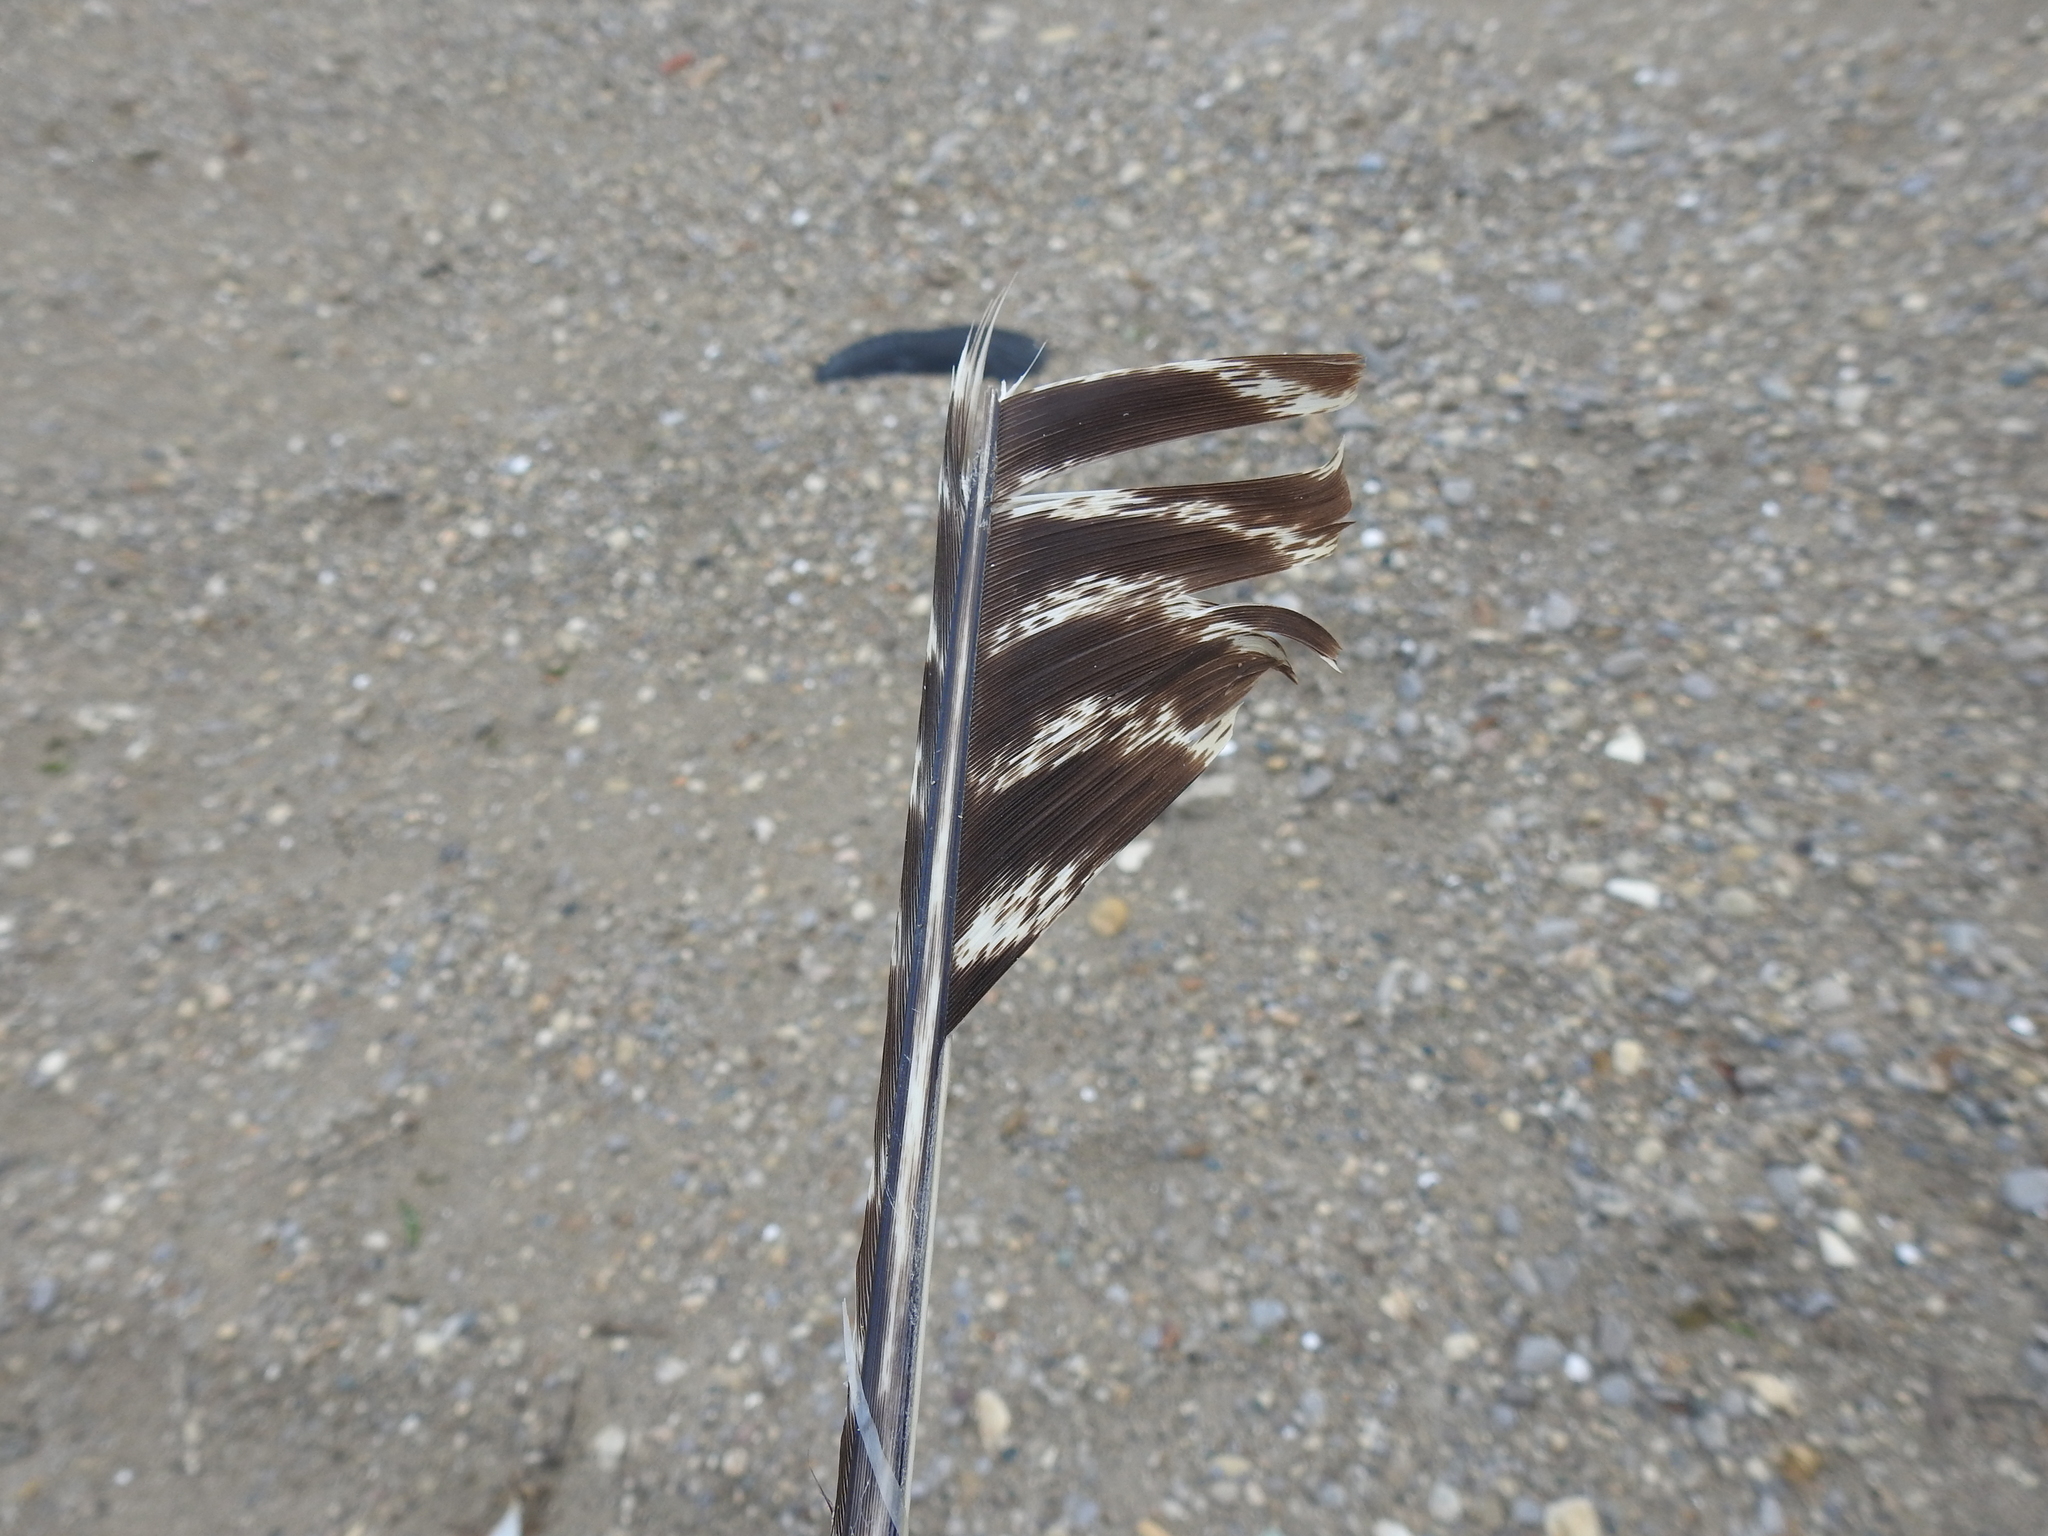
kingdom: Animalia
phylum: Chordata
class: Aves
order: Galliformes
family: Phasianidae
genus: Meleagris
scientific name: Meleagris gallopavo
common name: Wild turkey
